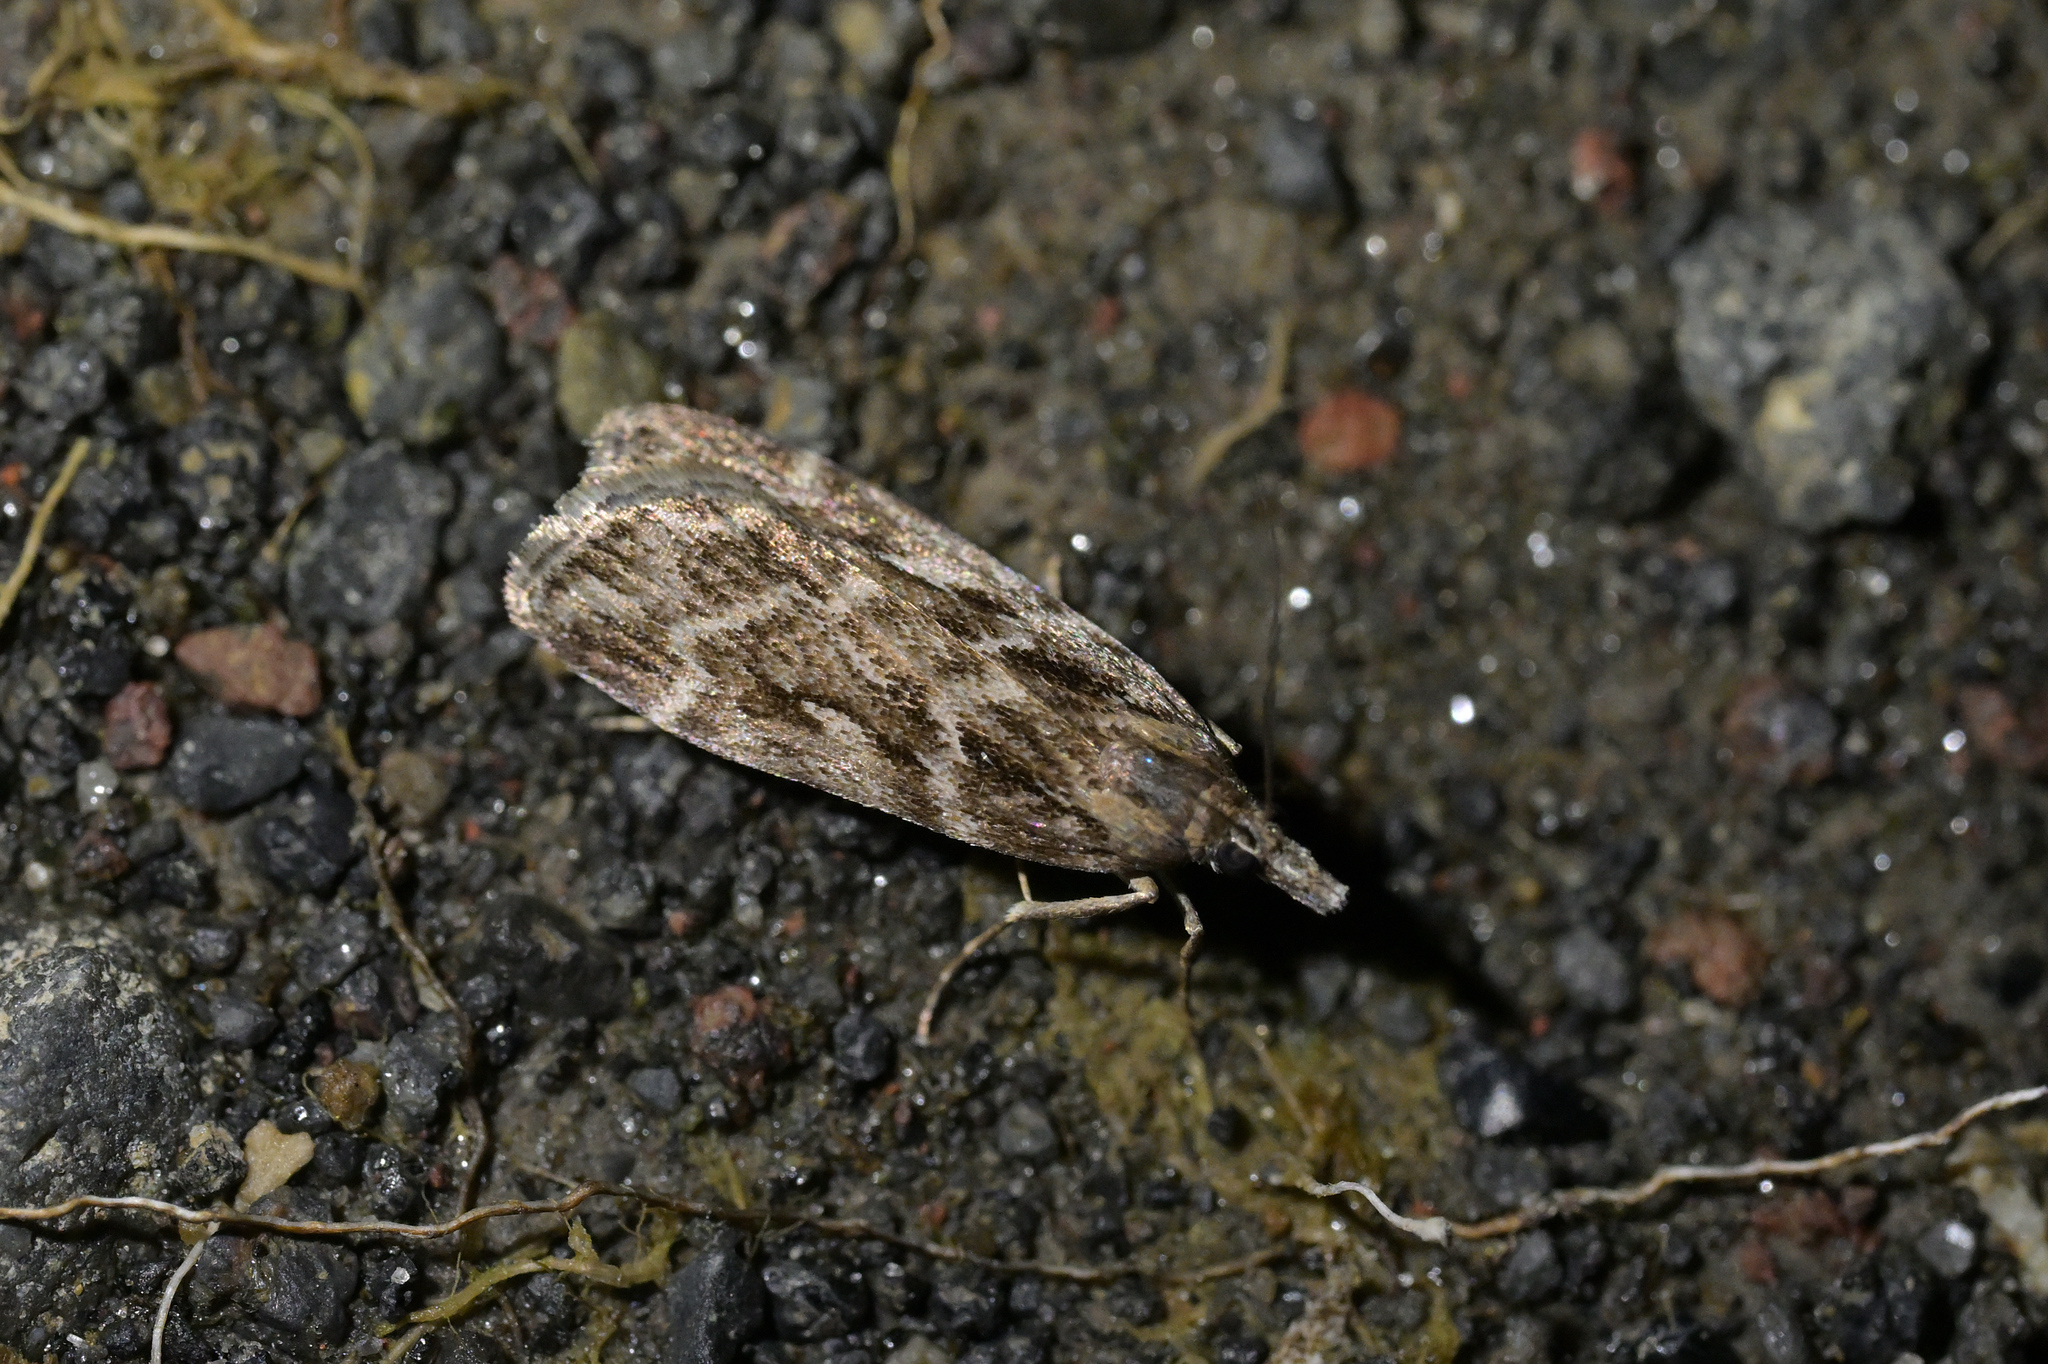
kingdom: Animalia
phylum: Arthropoda
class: Insecta
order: Lepidoptera
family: Crambidae
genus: Eudonia
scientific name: Eudonia cyptastis
